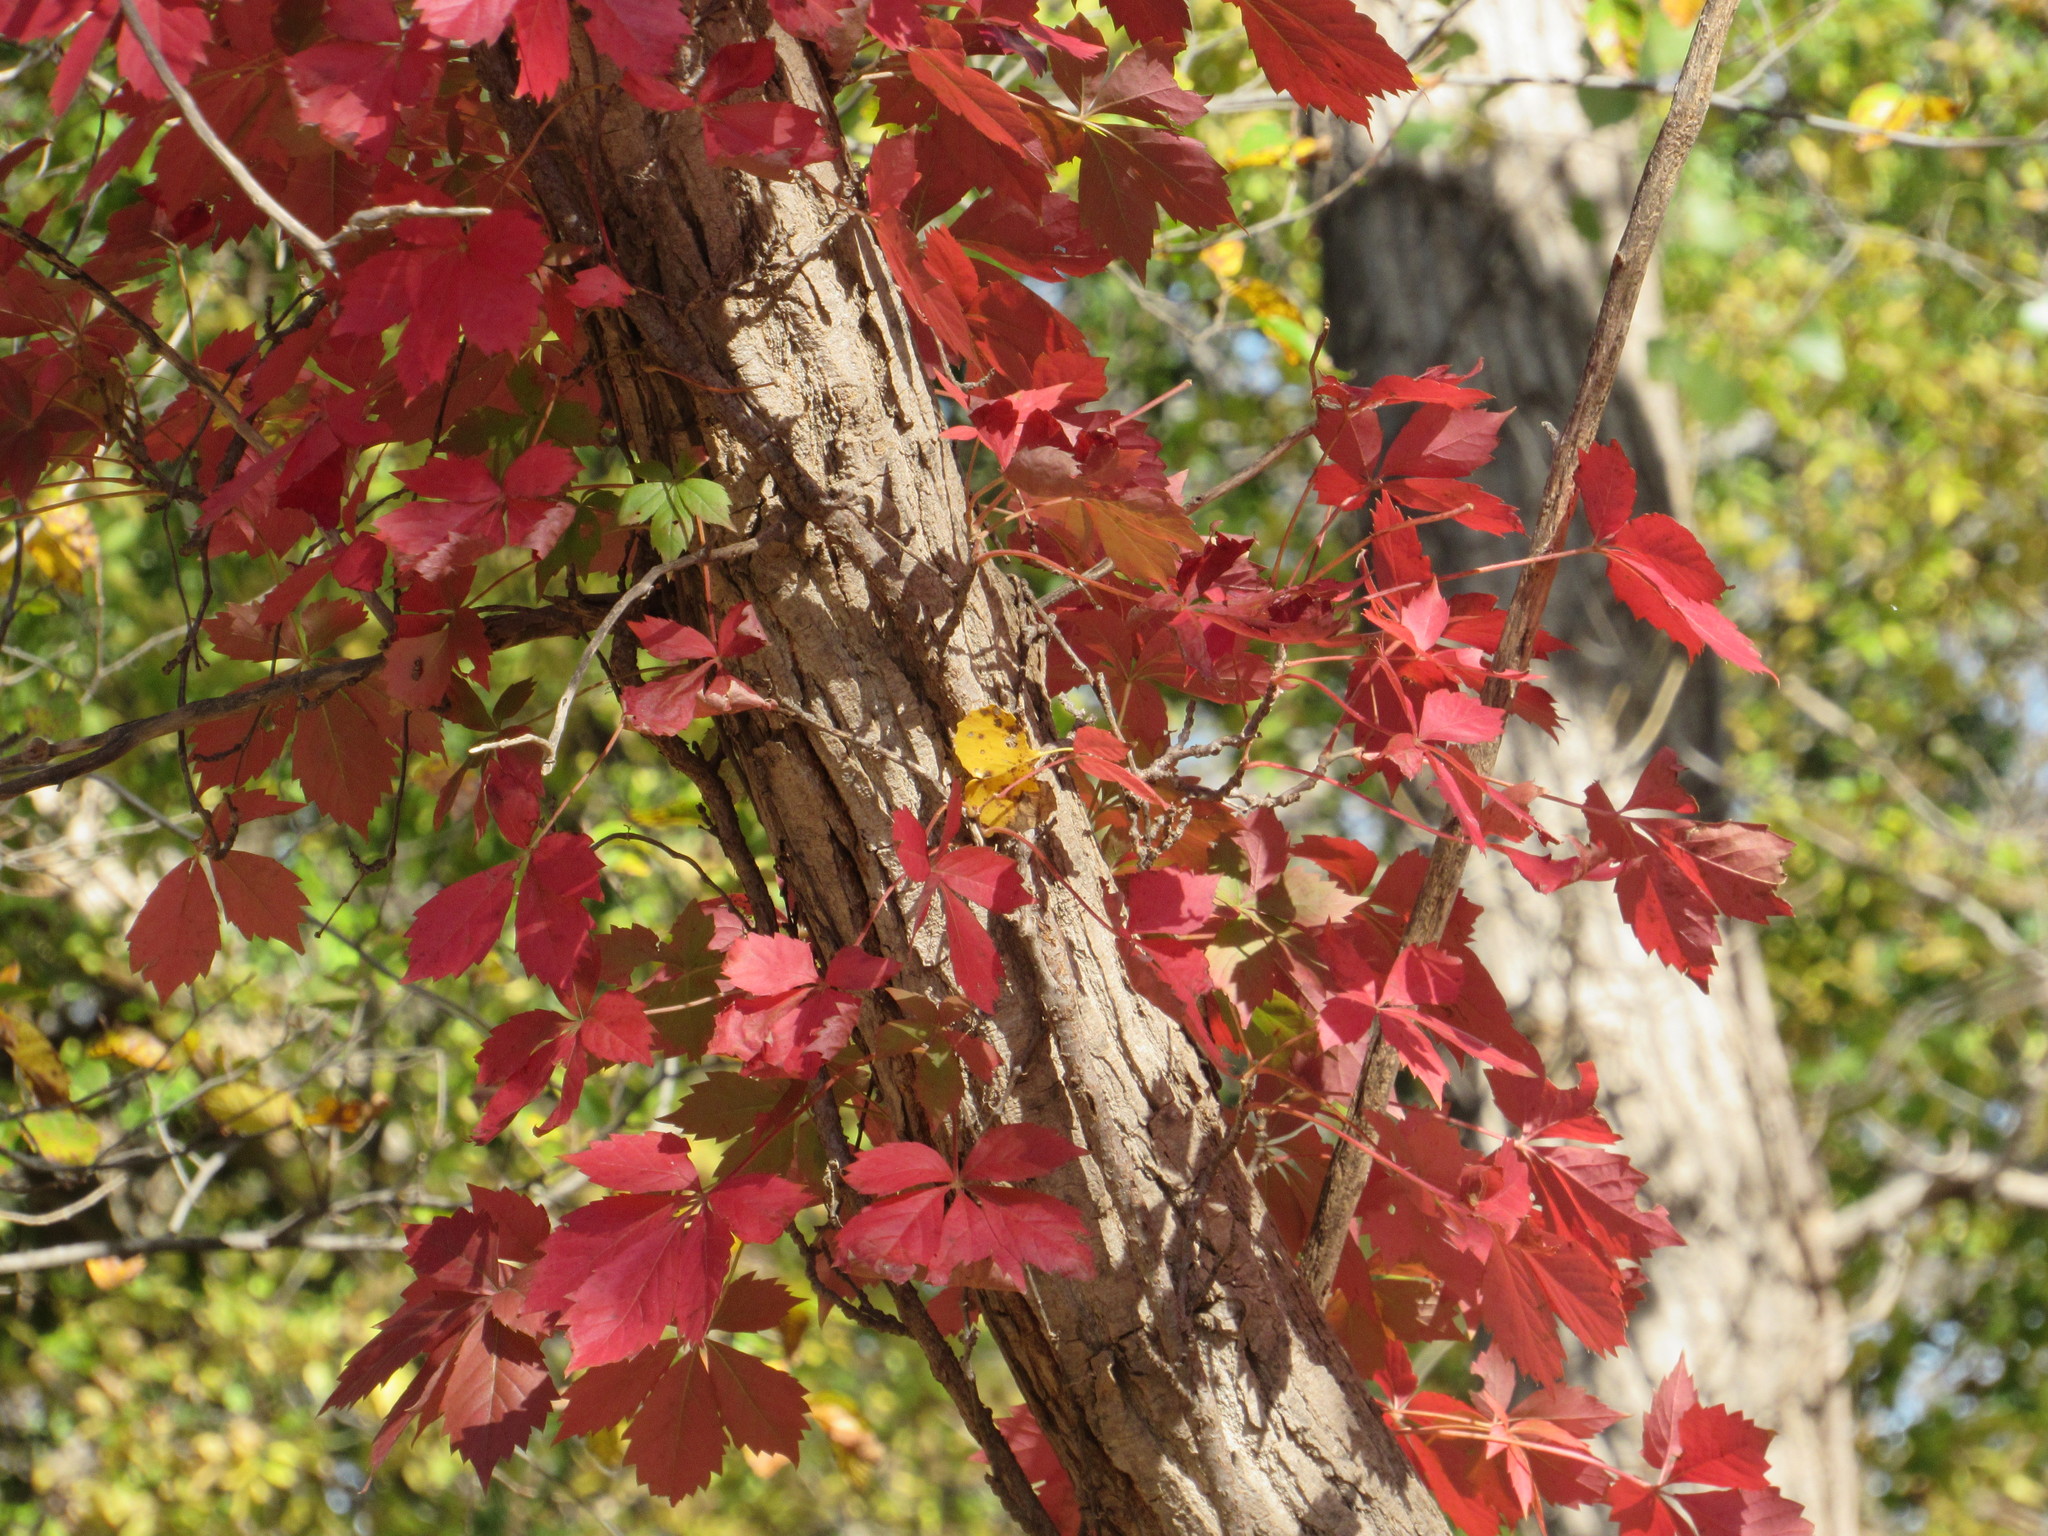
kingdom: Plantae
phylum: Tracheophyta
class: Magnoliopsida
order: Vitales
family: Vitaceae
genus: Parthenocissus
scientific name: Parthenocissus quinquefolia
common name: Virginia-creeper
